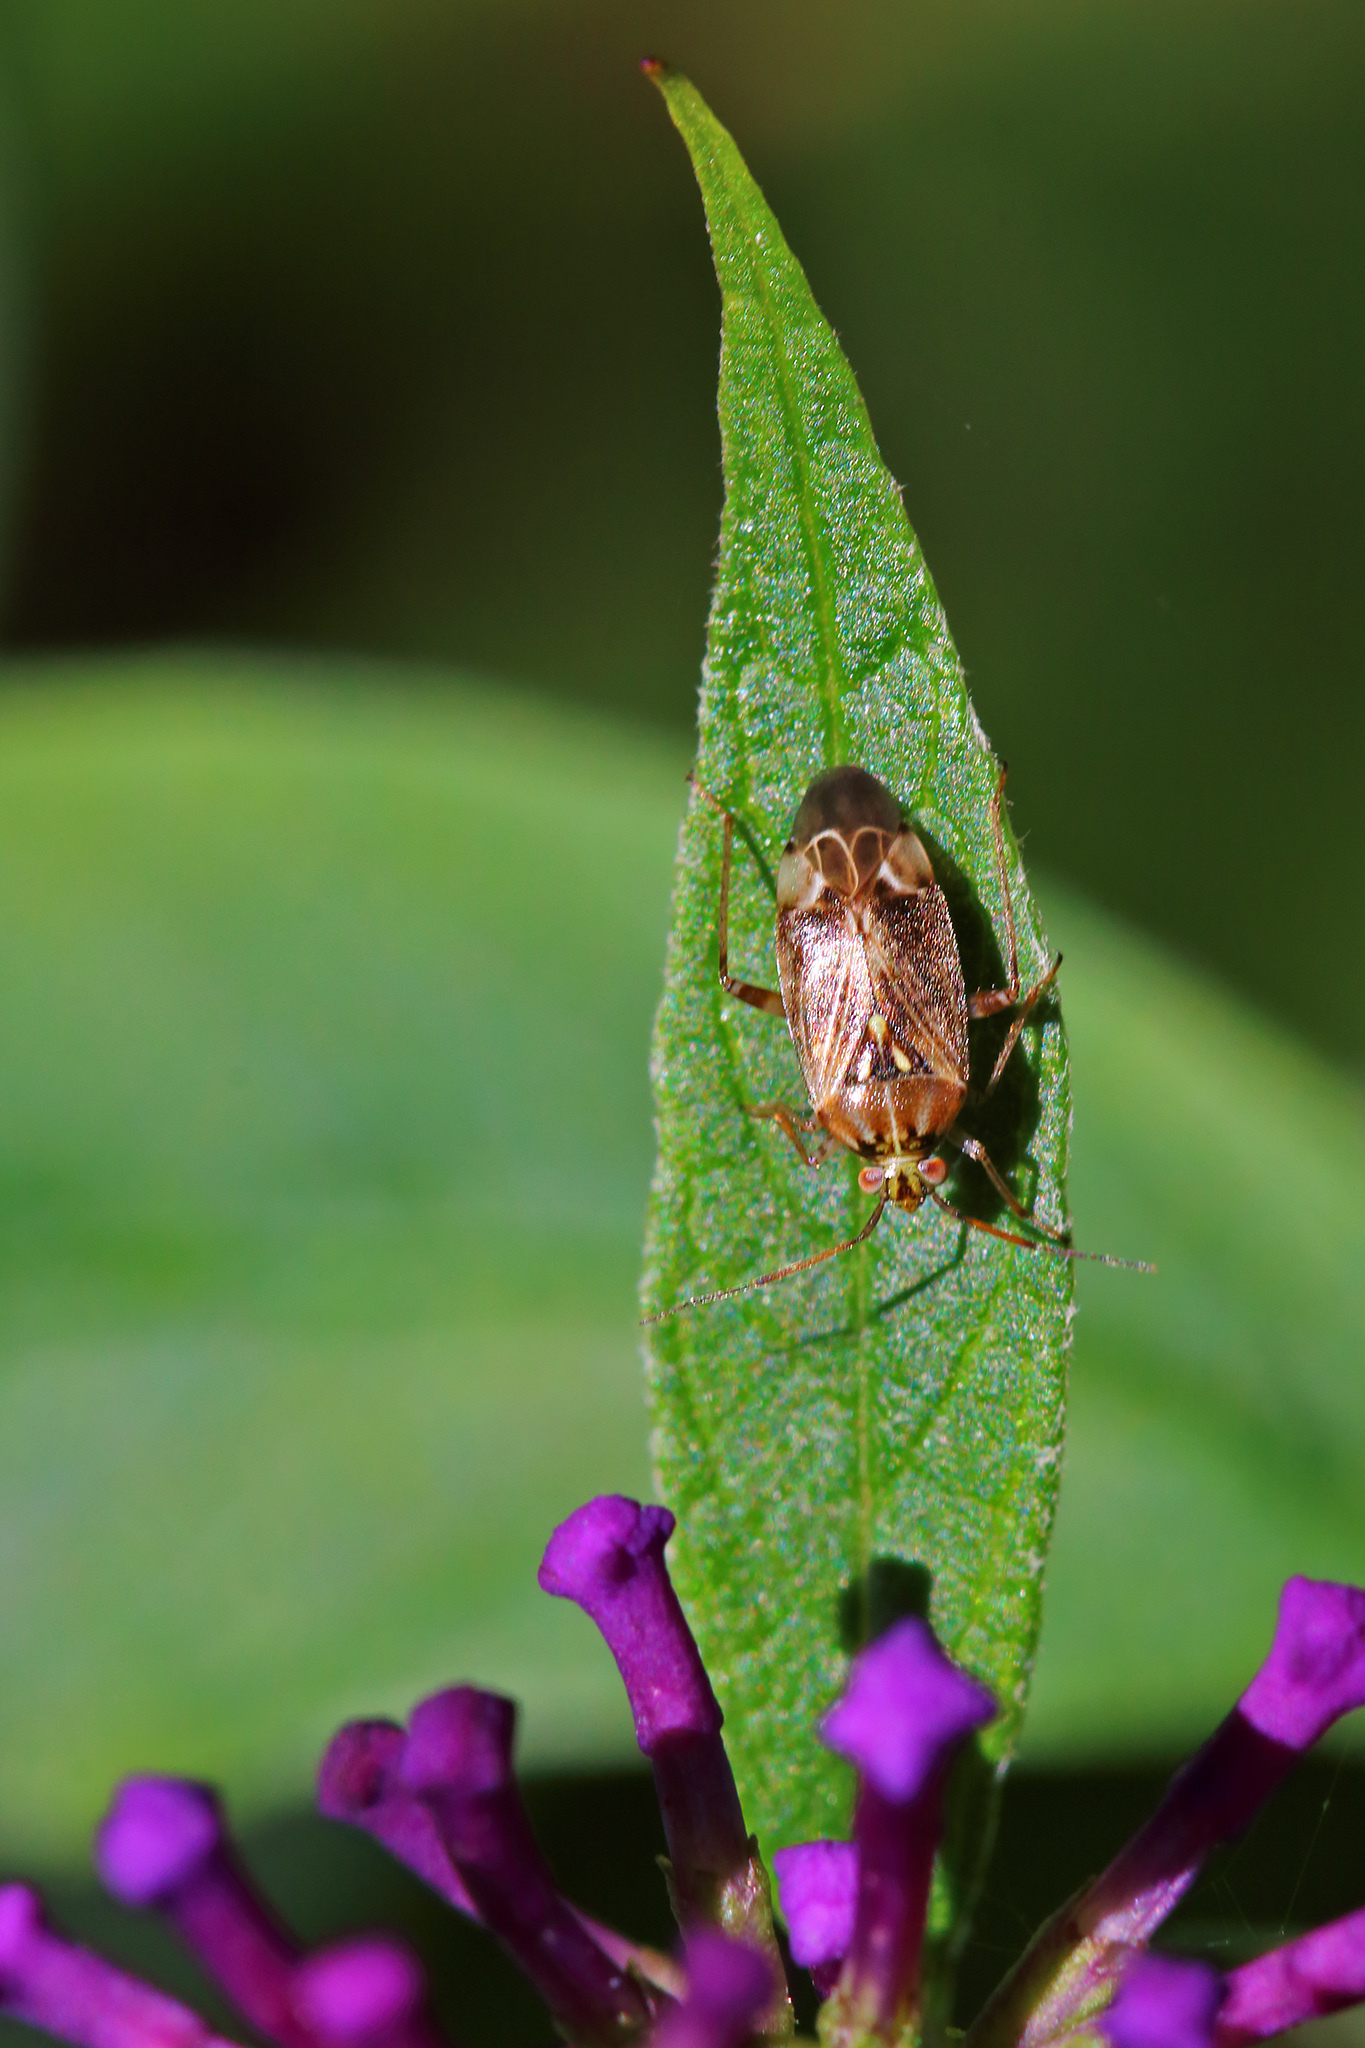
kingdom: Animalia
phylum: Arthropoda
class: Insecta
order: Hemiptera
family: Miridae
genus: Lygus
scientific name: Lygus rugulipennis
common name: European tarnished plant bug
